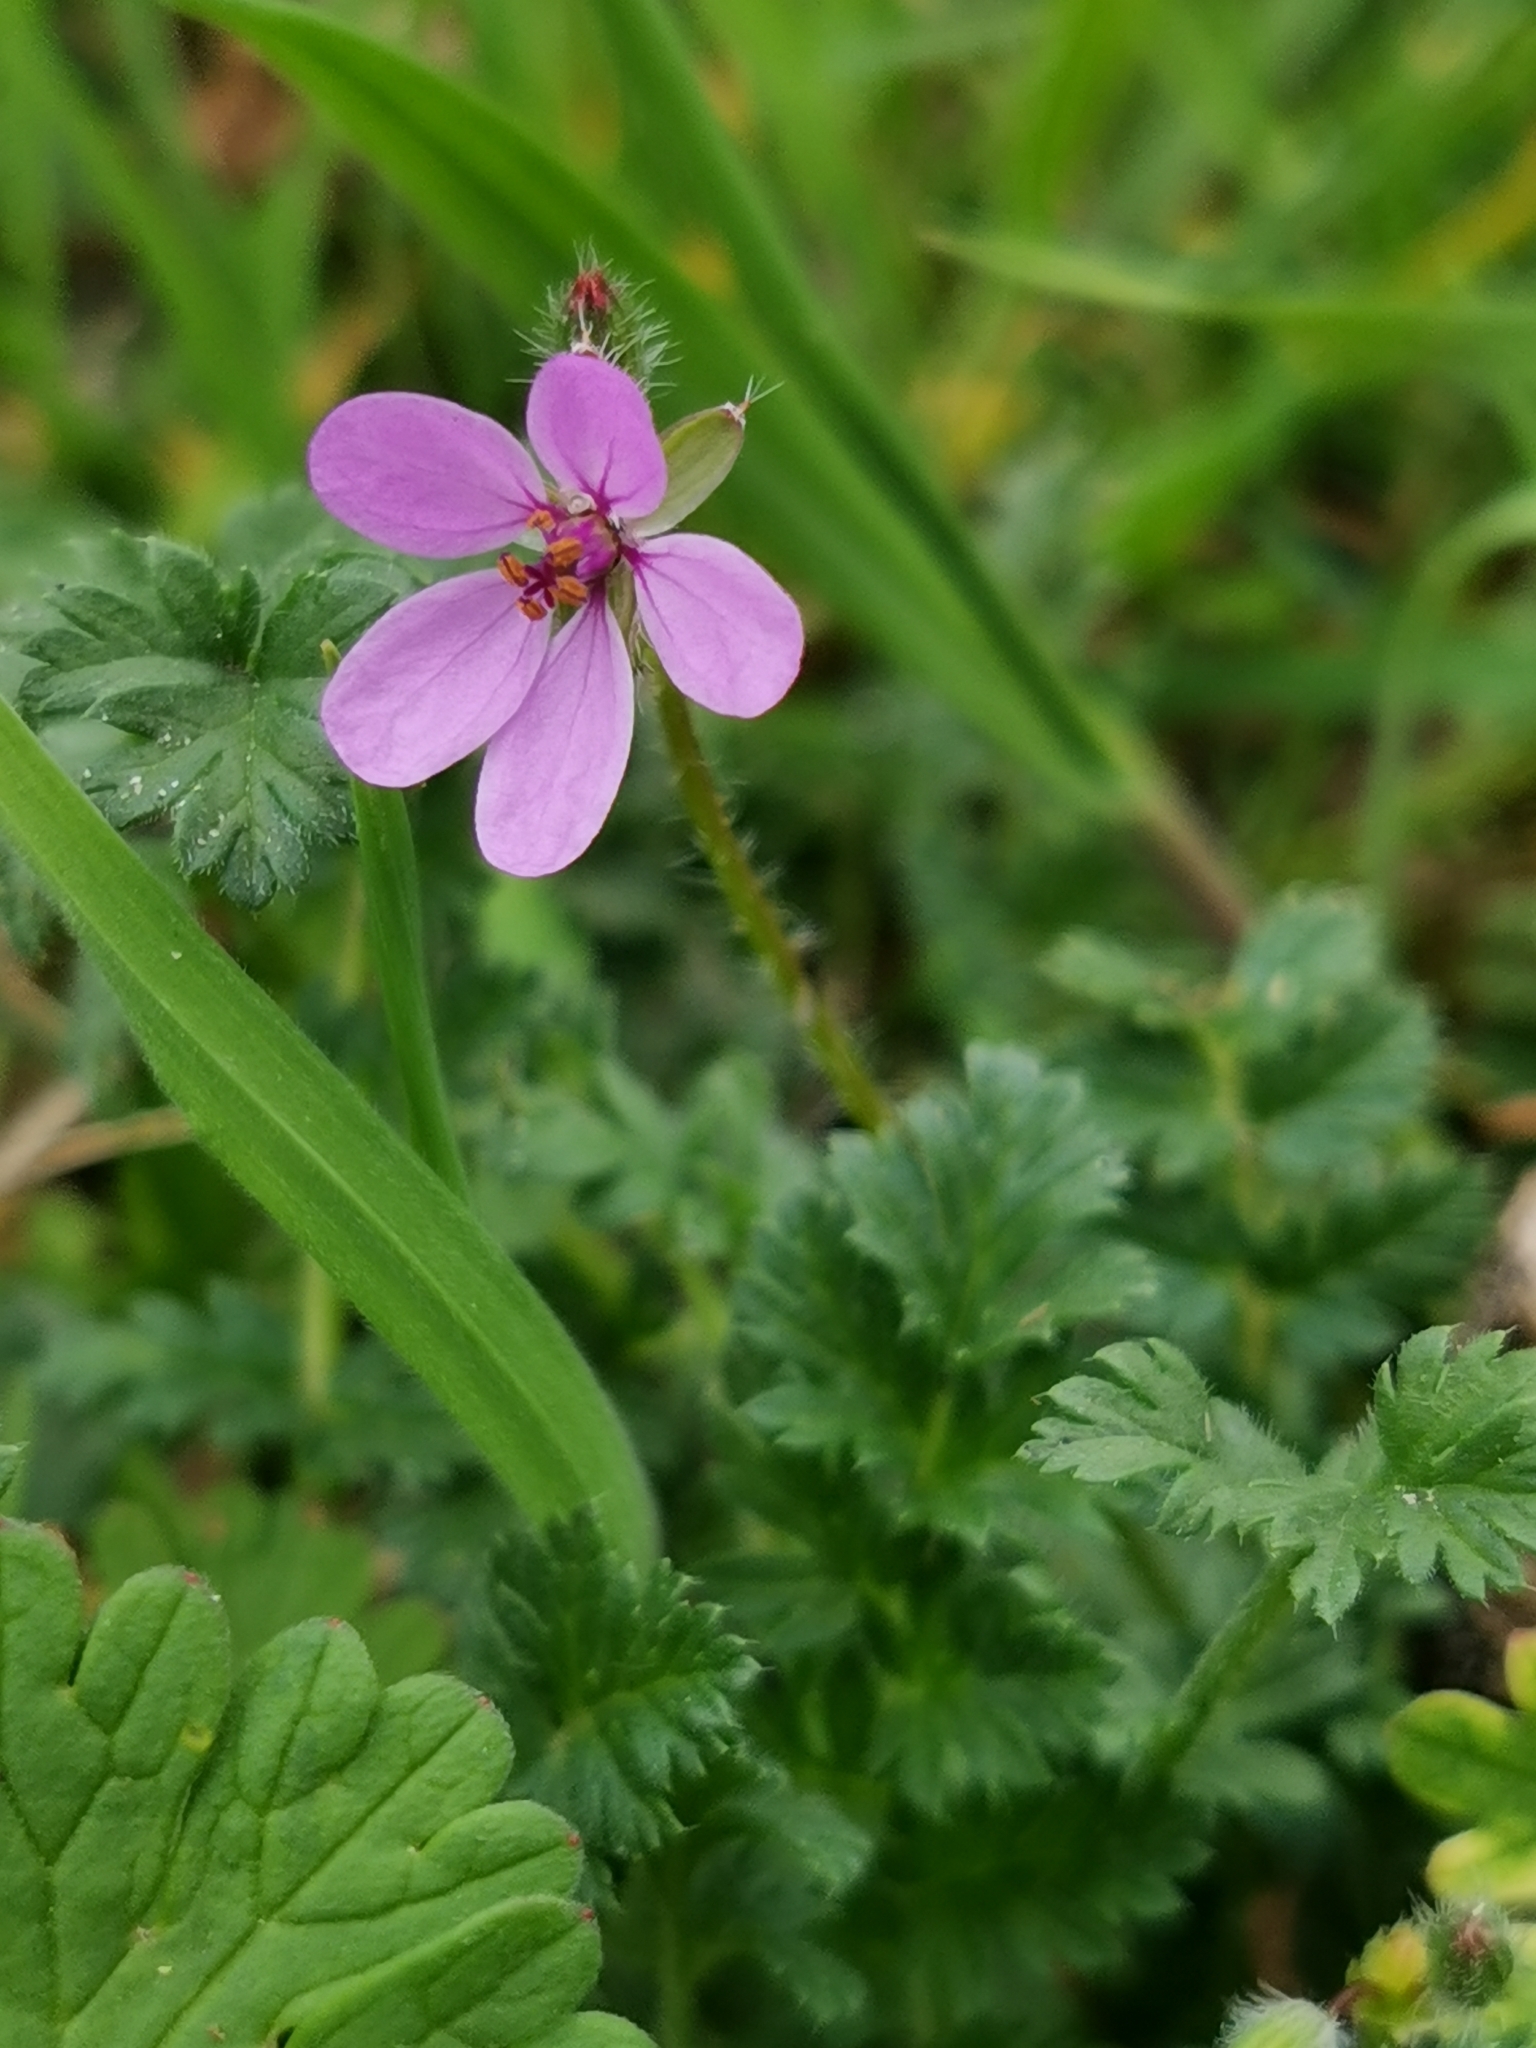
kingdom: Plantae
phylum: Tracheophyta
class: Magnoliopsida
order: Geraniales
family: Geraniaceae
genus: Erodium
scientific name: Erodium cicutarium
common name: Common stork's-bill
